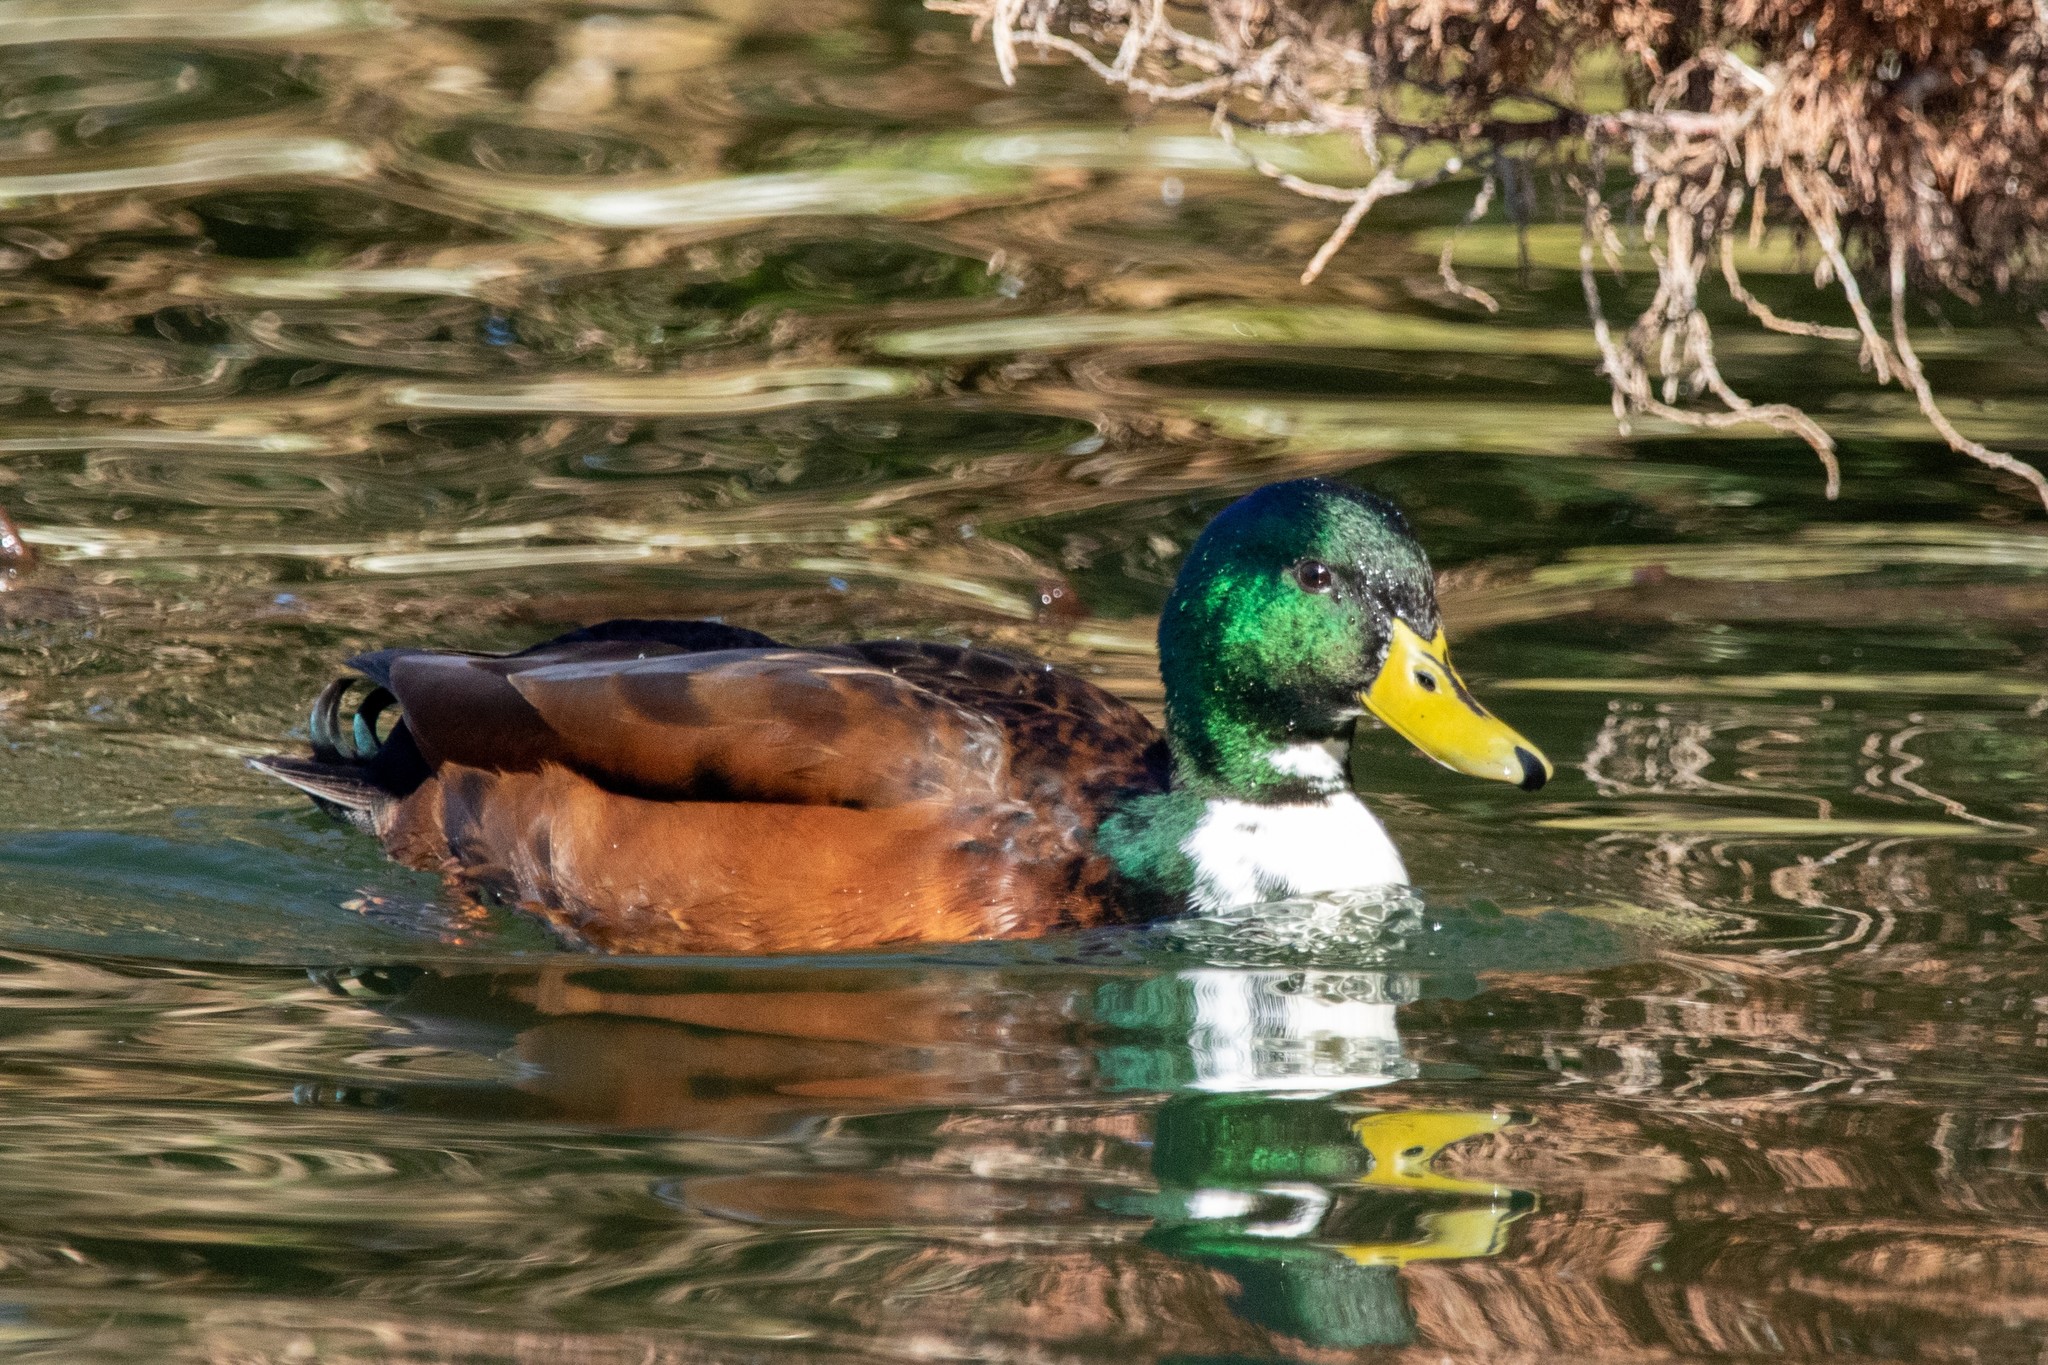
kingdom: Animalia
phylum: Chordata
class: Aves
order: Anseriformes
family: Anatidae
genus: Anas
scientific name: Anas platyrhynchos
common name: Mallard
